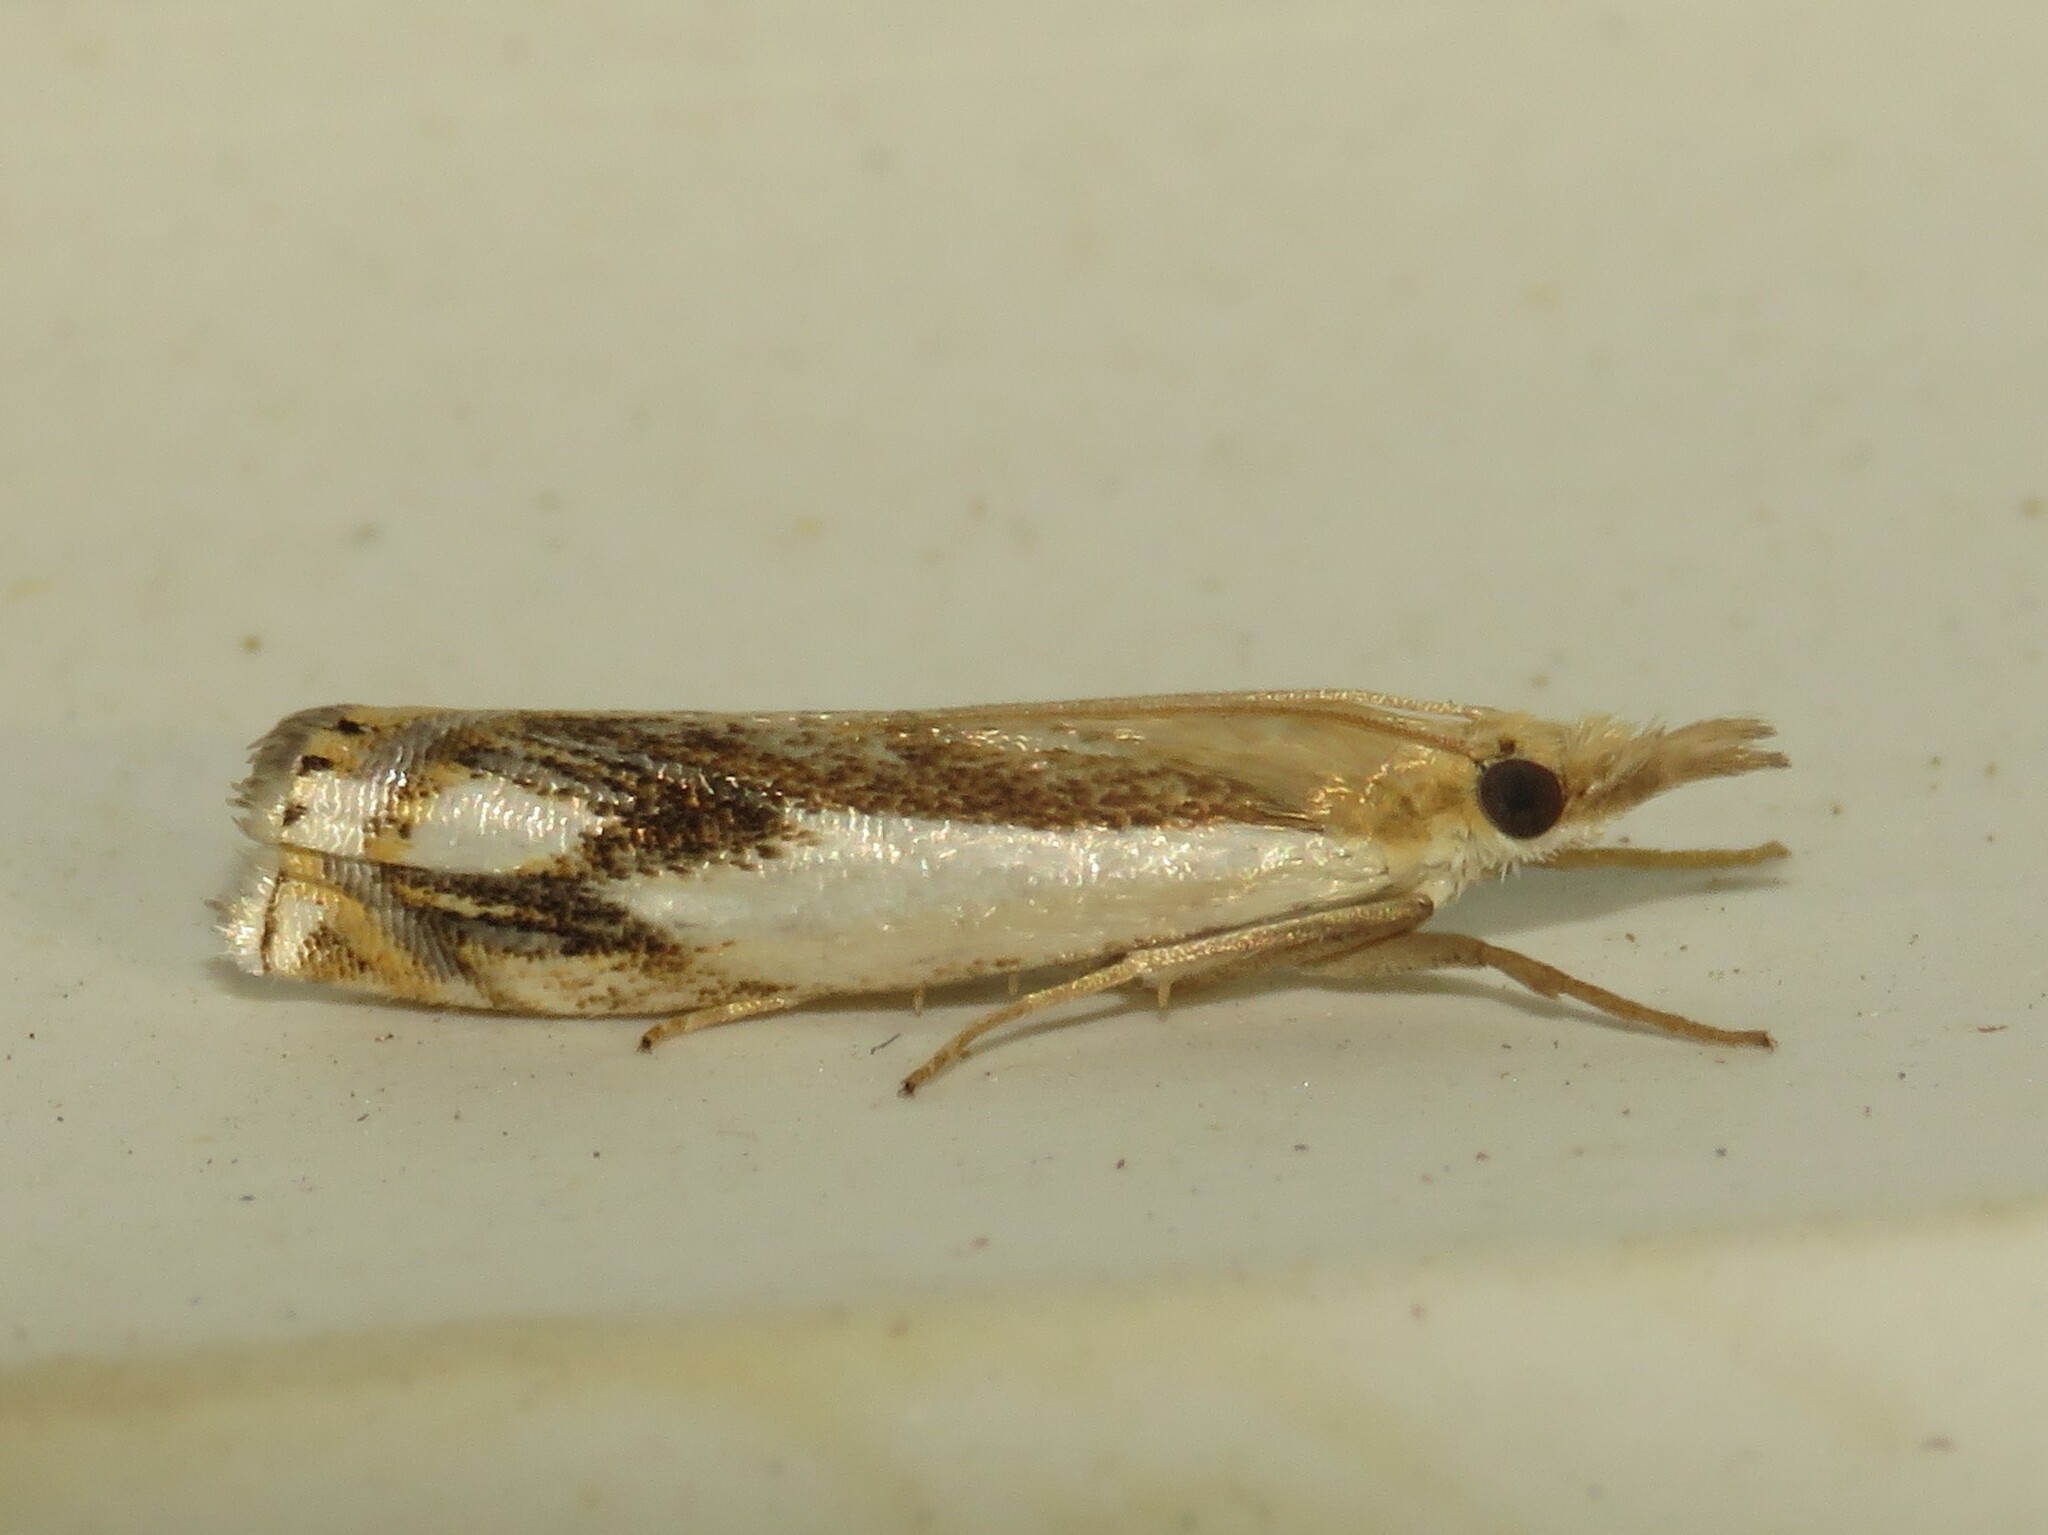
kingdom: Animalia
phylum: Arthropoda
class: Insecta
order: Lepidoptera
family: Crambidae
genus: Crambus
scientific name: Crambus agitatellus
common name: Double-banded grass-veneer
